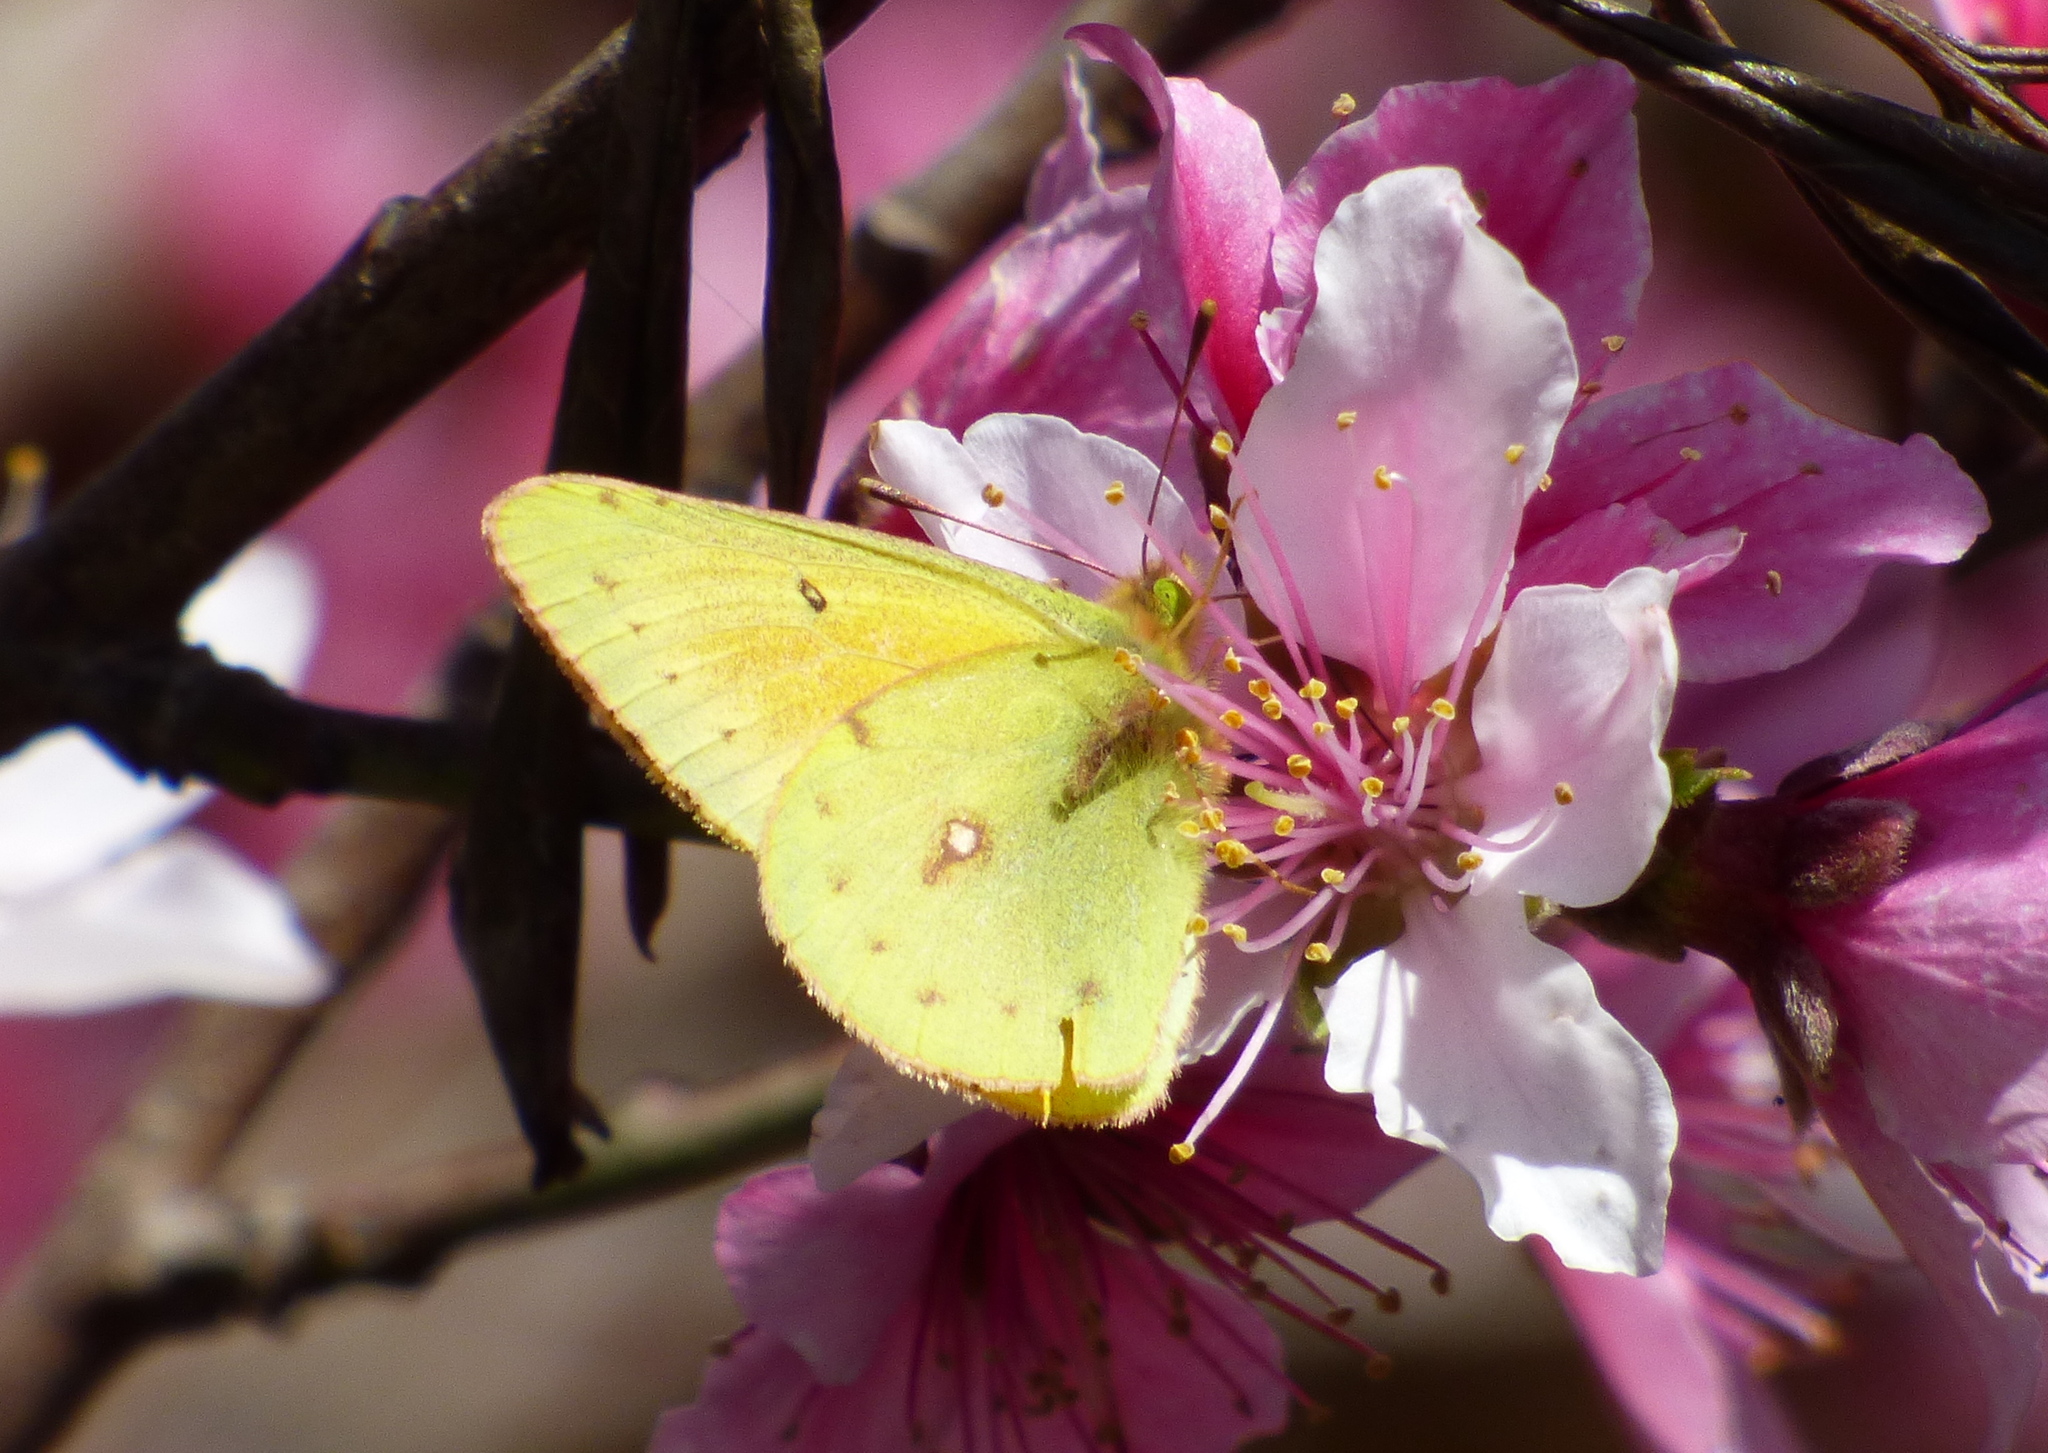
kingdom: Animalia
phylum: Arthropoda
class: Insecta
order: Lepidoptera
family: Pieridae
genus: Colias
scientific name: Colias lesbia
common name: Lesbia clouded yellow
